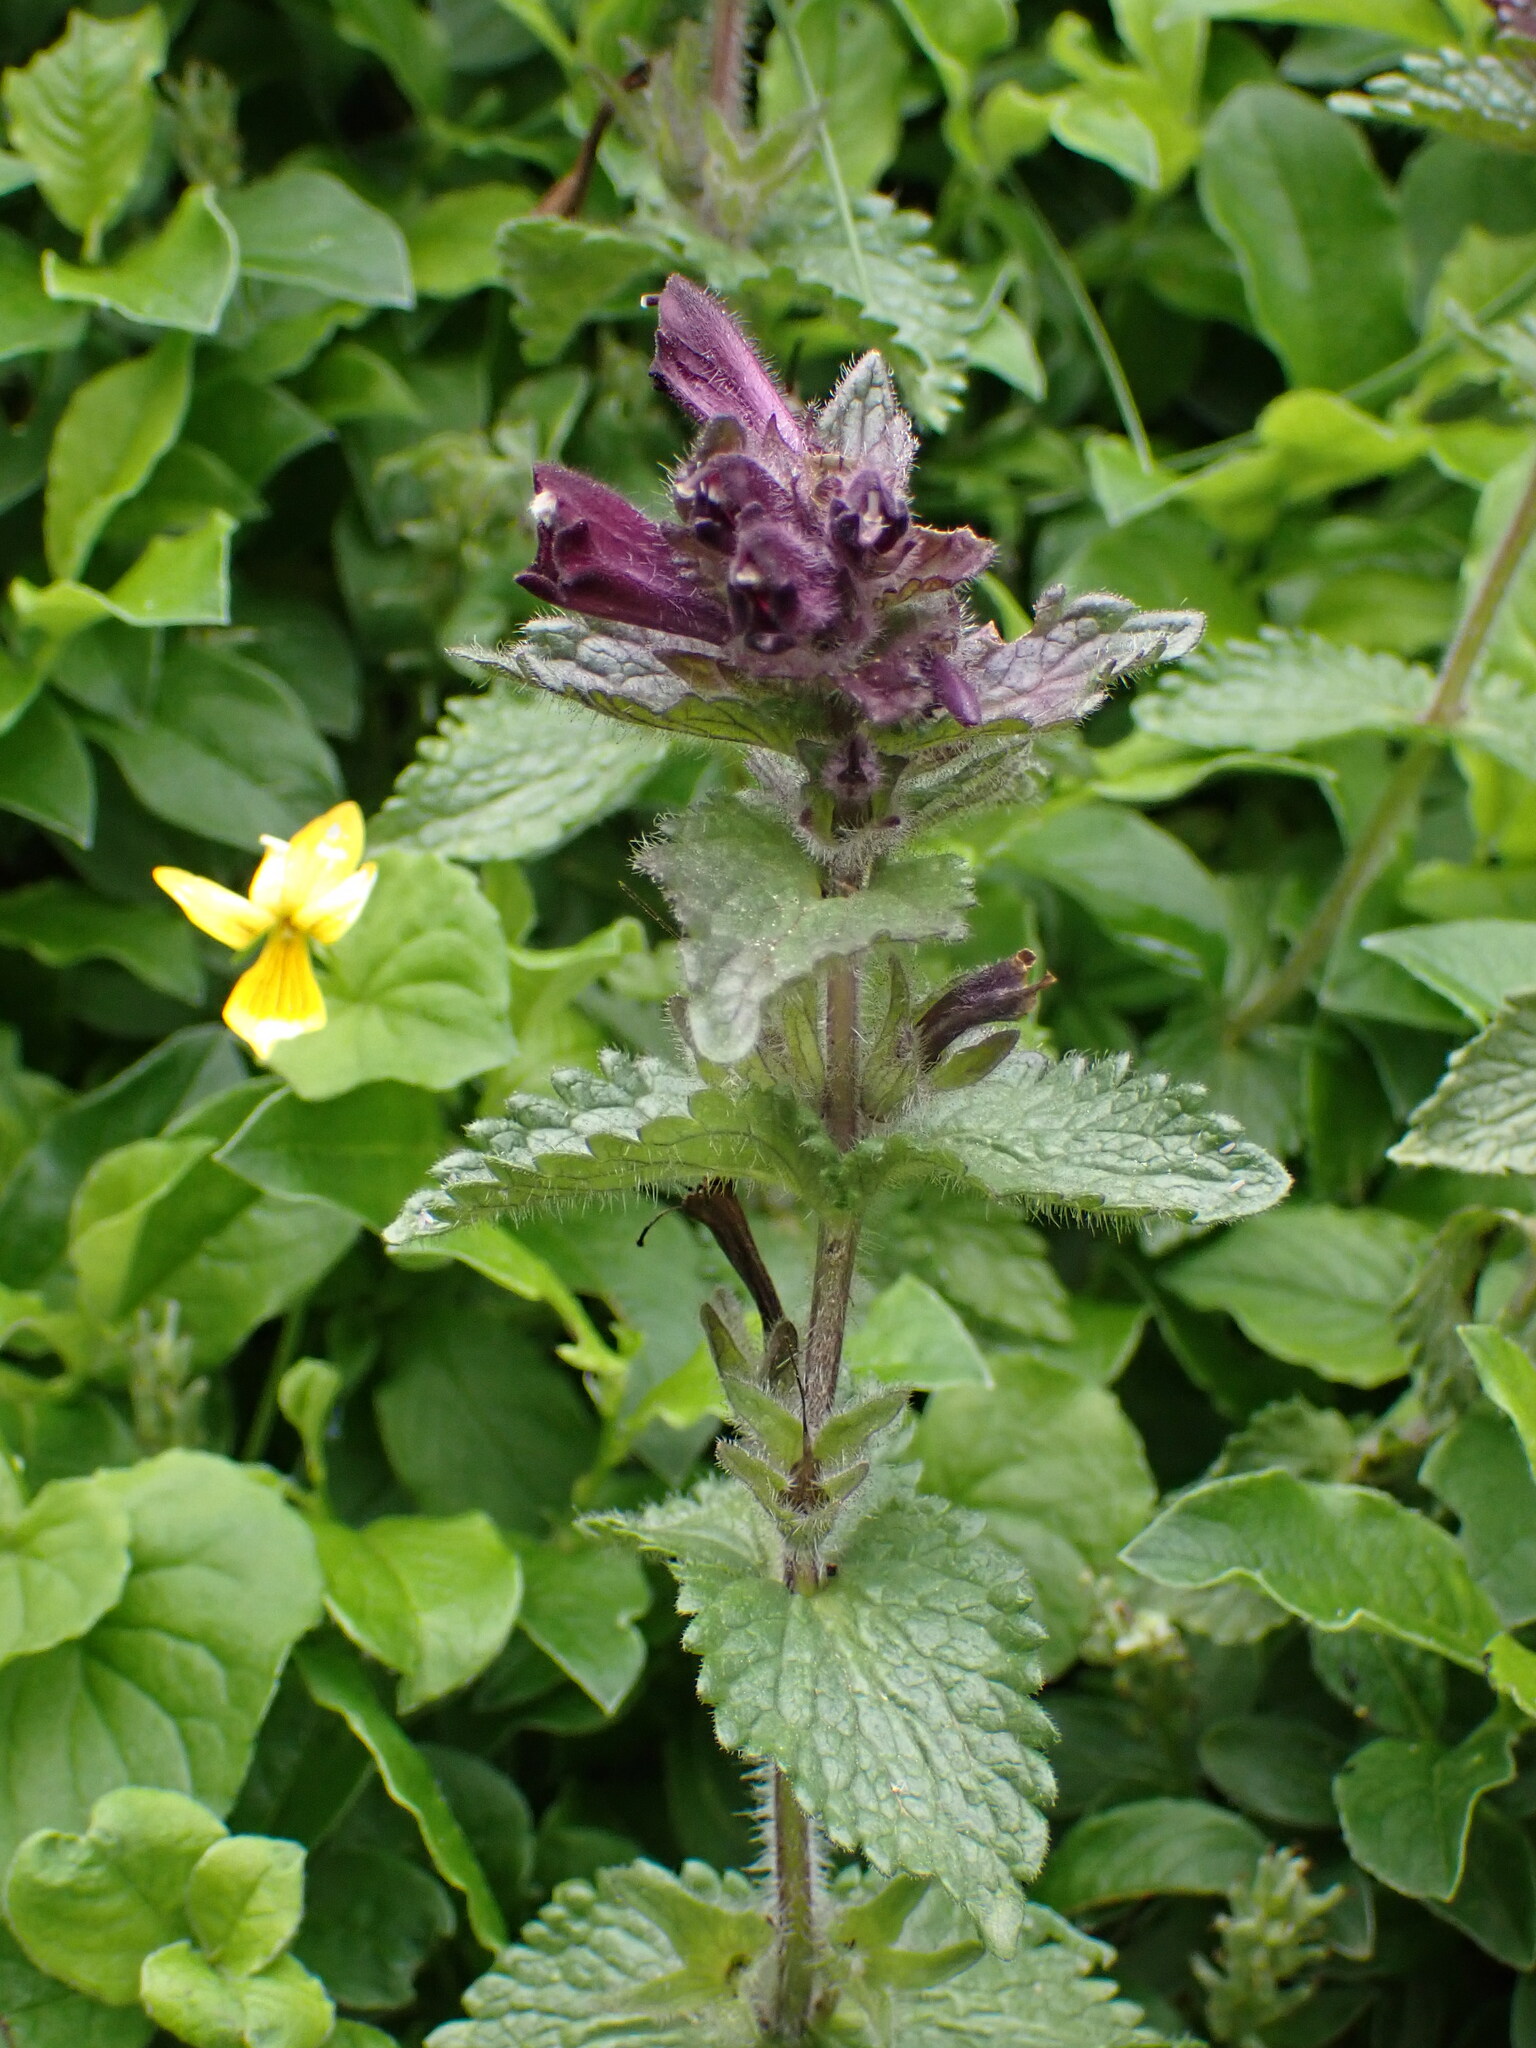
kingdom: Plantae
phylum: Tracheophyta
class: Magnoliopsida
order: Lamiales
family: Orobanchaceae
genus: Bartsia
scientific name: Bartsia alpina
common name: Alpine bartsia
